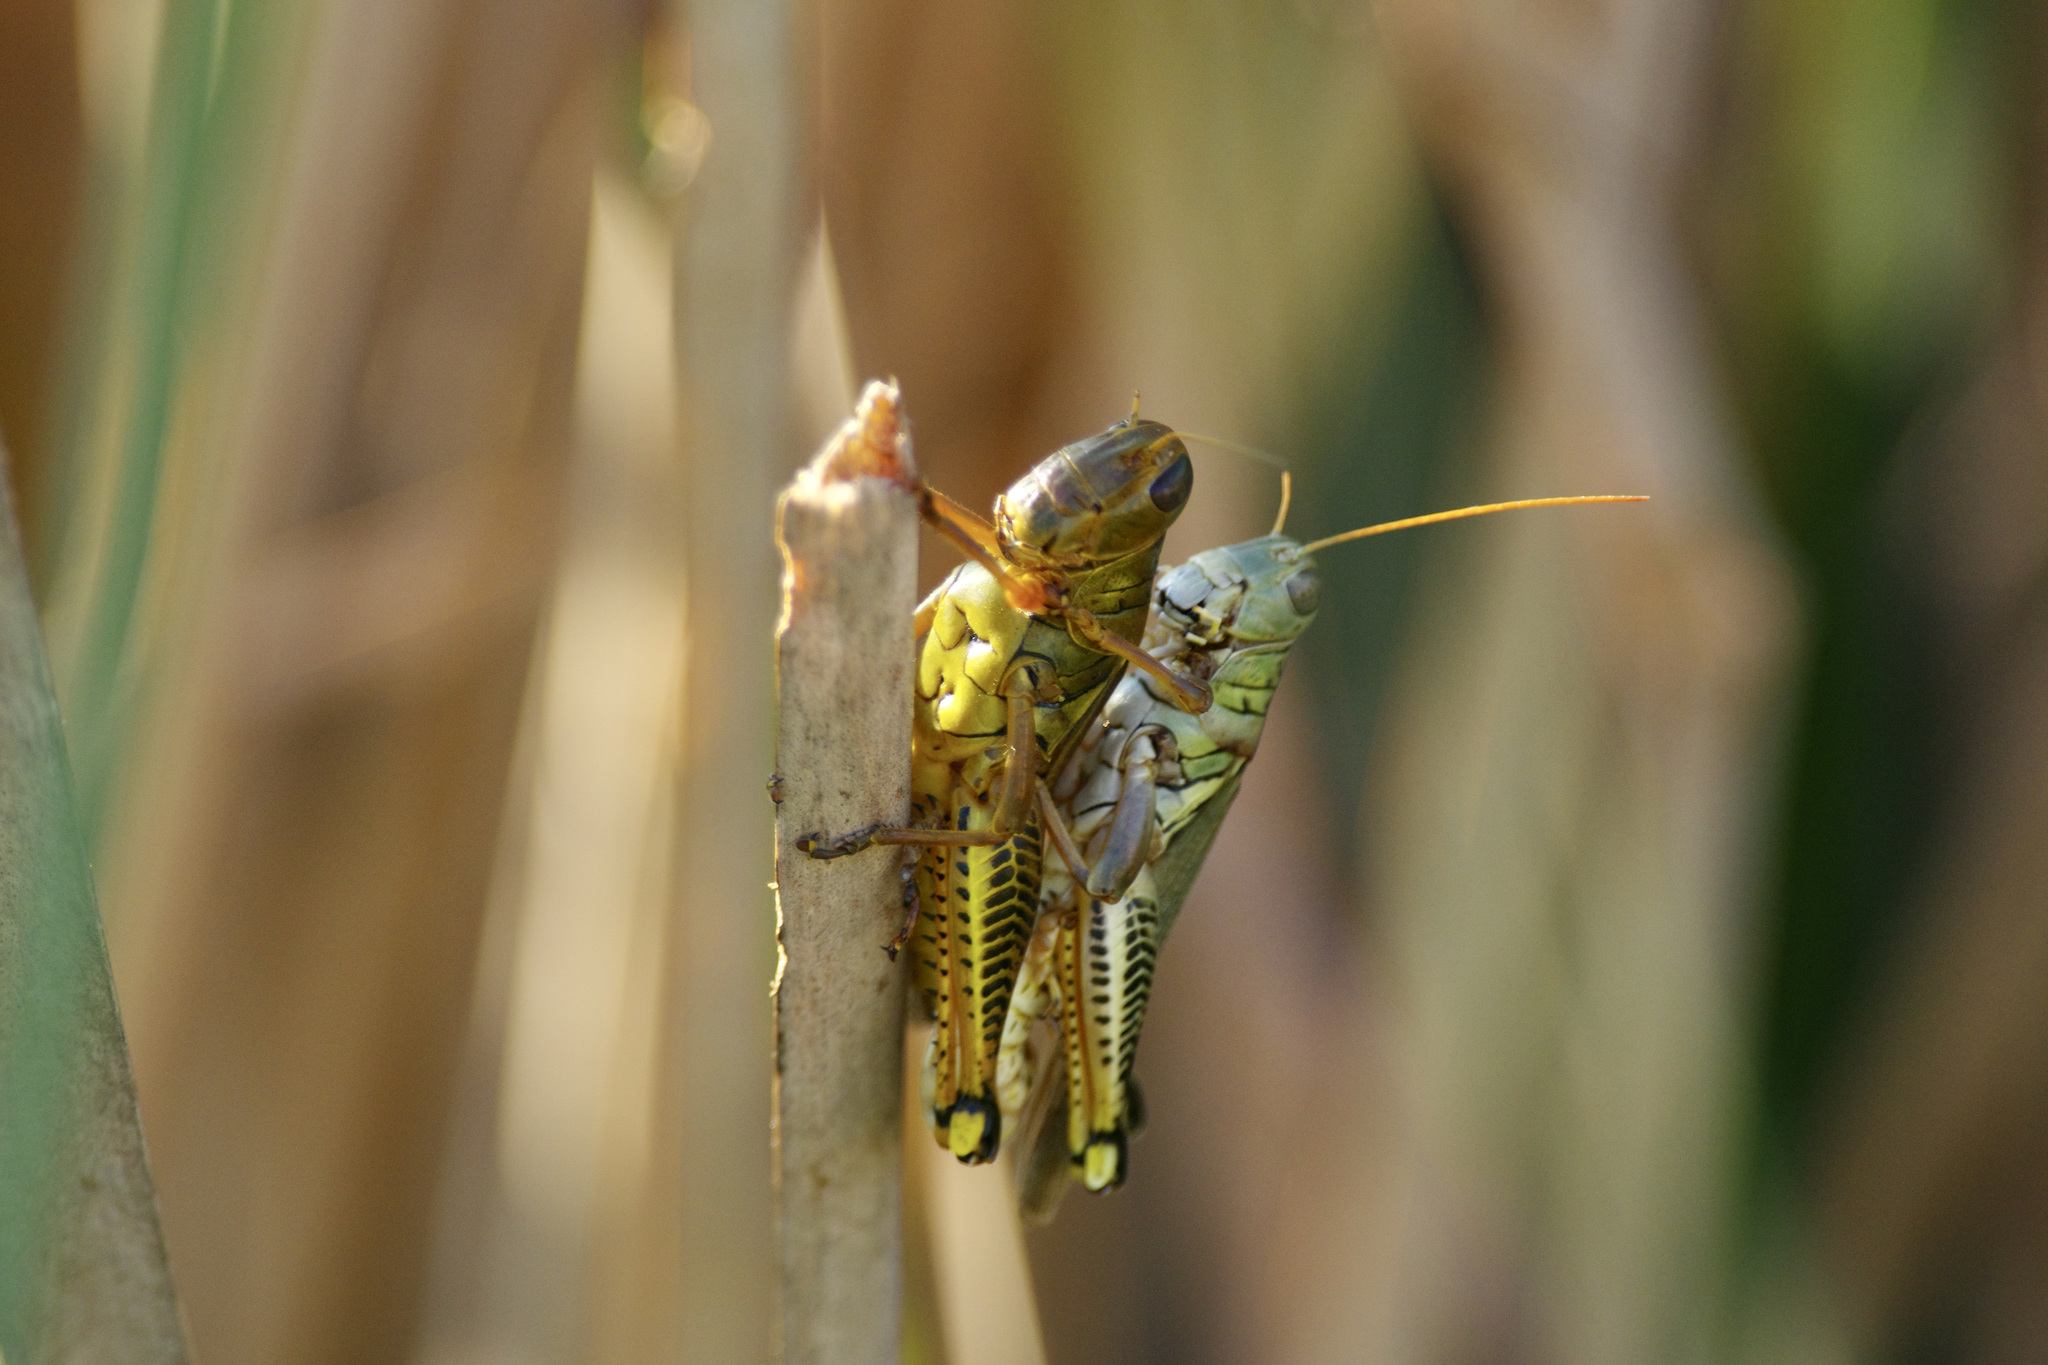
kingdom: Animalia
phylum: Arthropoda
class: Insecta
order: Orthoptera
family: Acrididae
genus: Melanoplus
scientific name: Melanoplus differentialis
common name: Differential grasshopper
